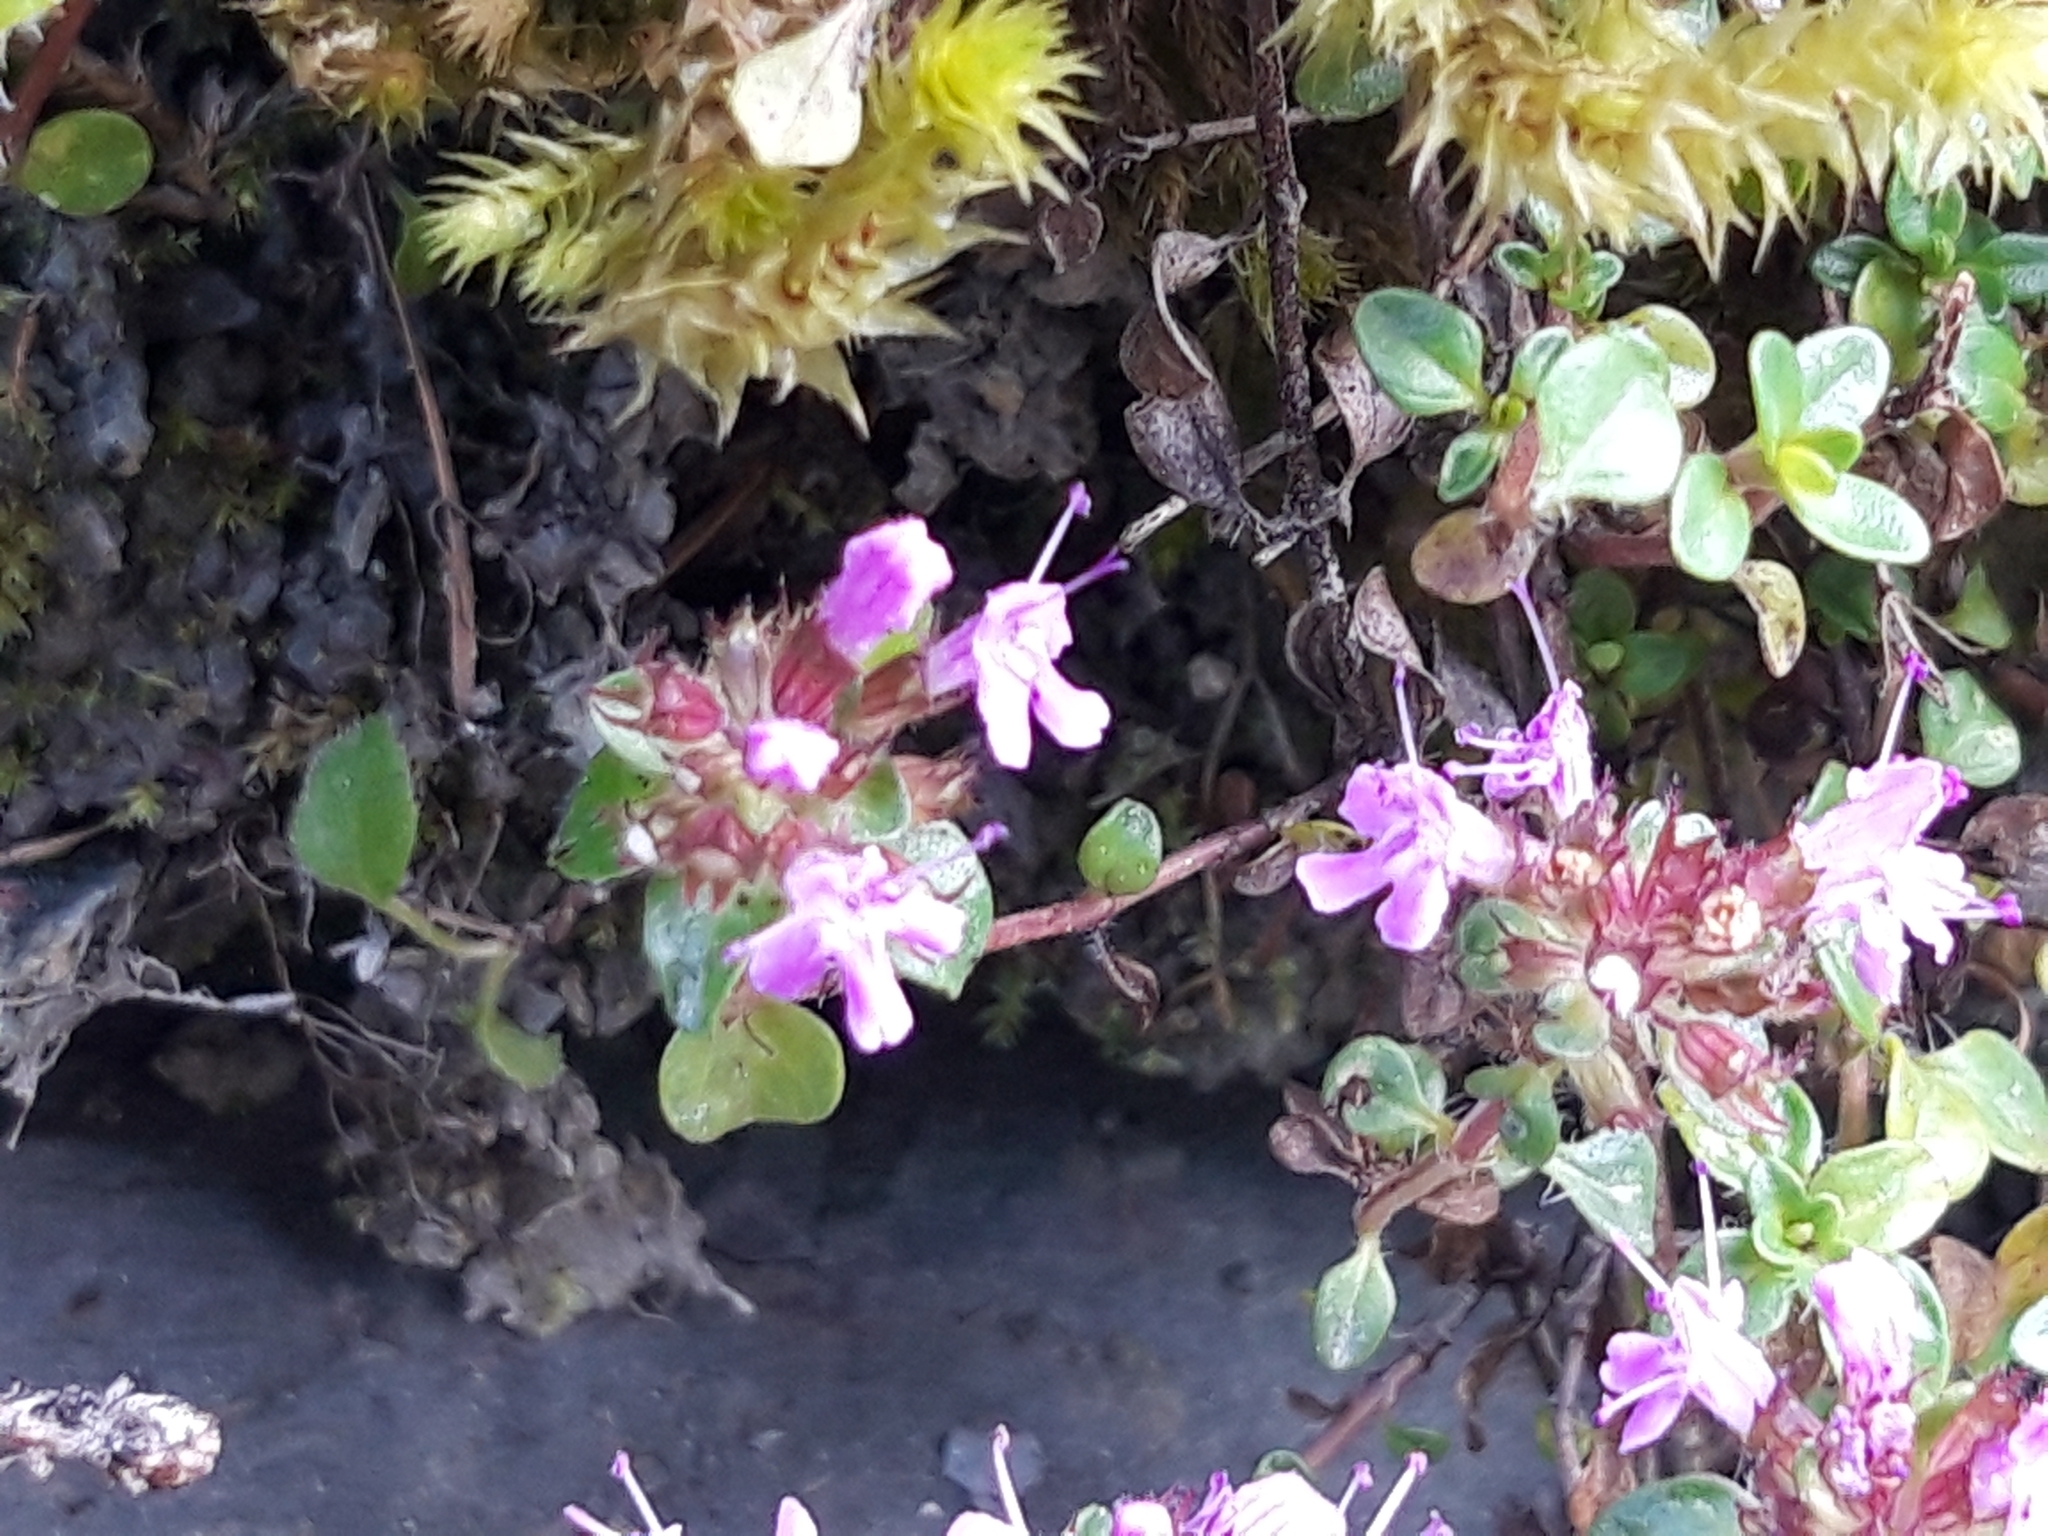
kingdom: Plantae
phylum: Tracheophyta
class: Magnoliopsida
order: Lamiales
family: Lamiaceae
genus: Thymus
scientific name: Thymus pulegioides
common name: Large thyme
